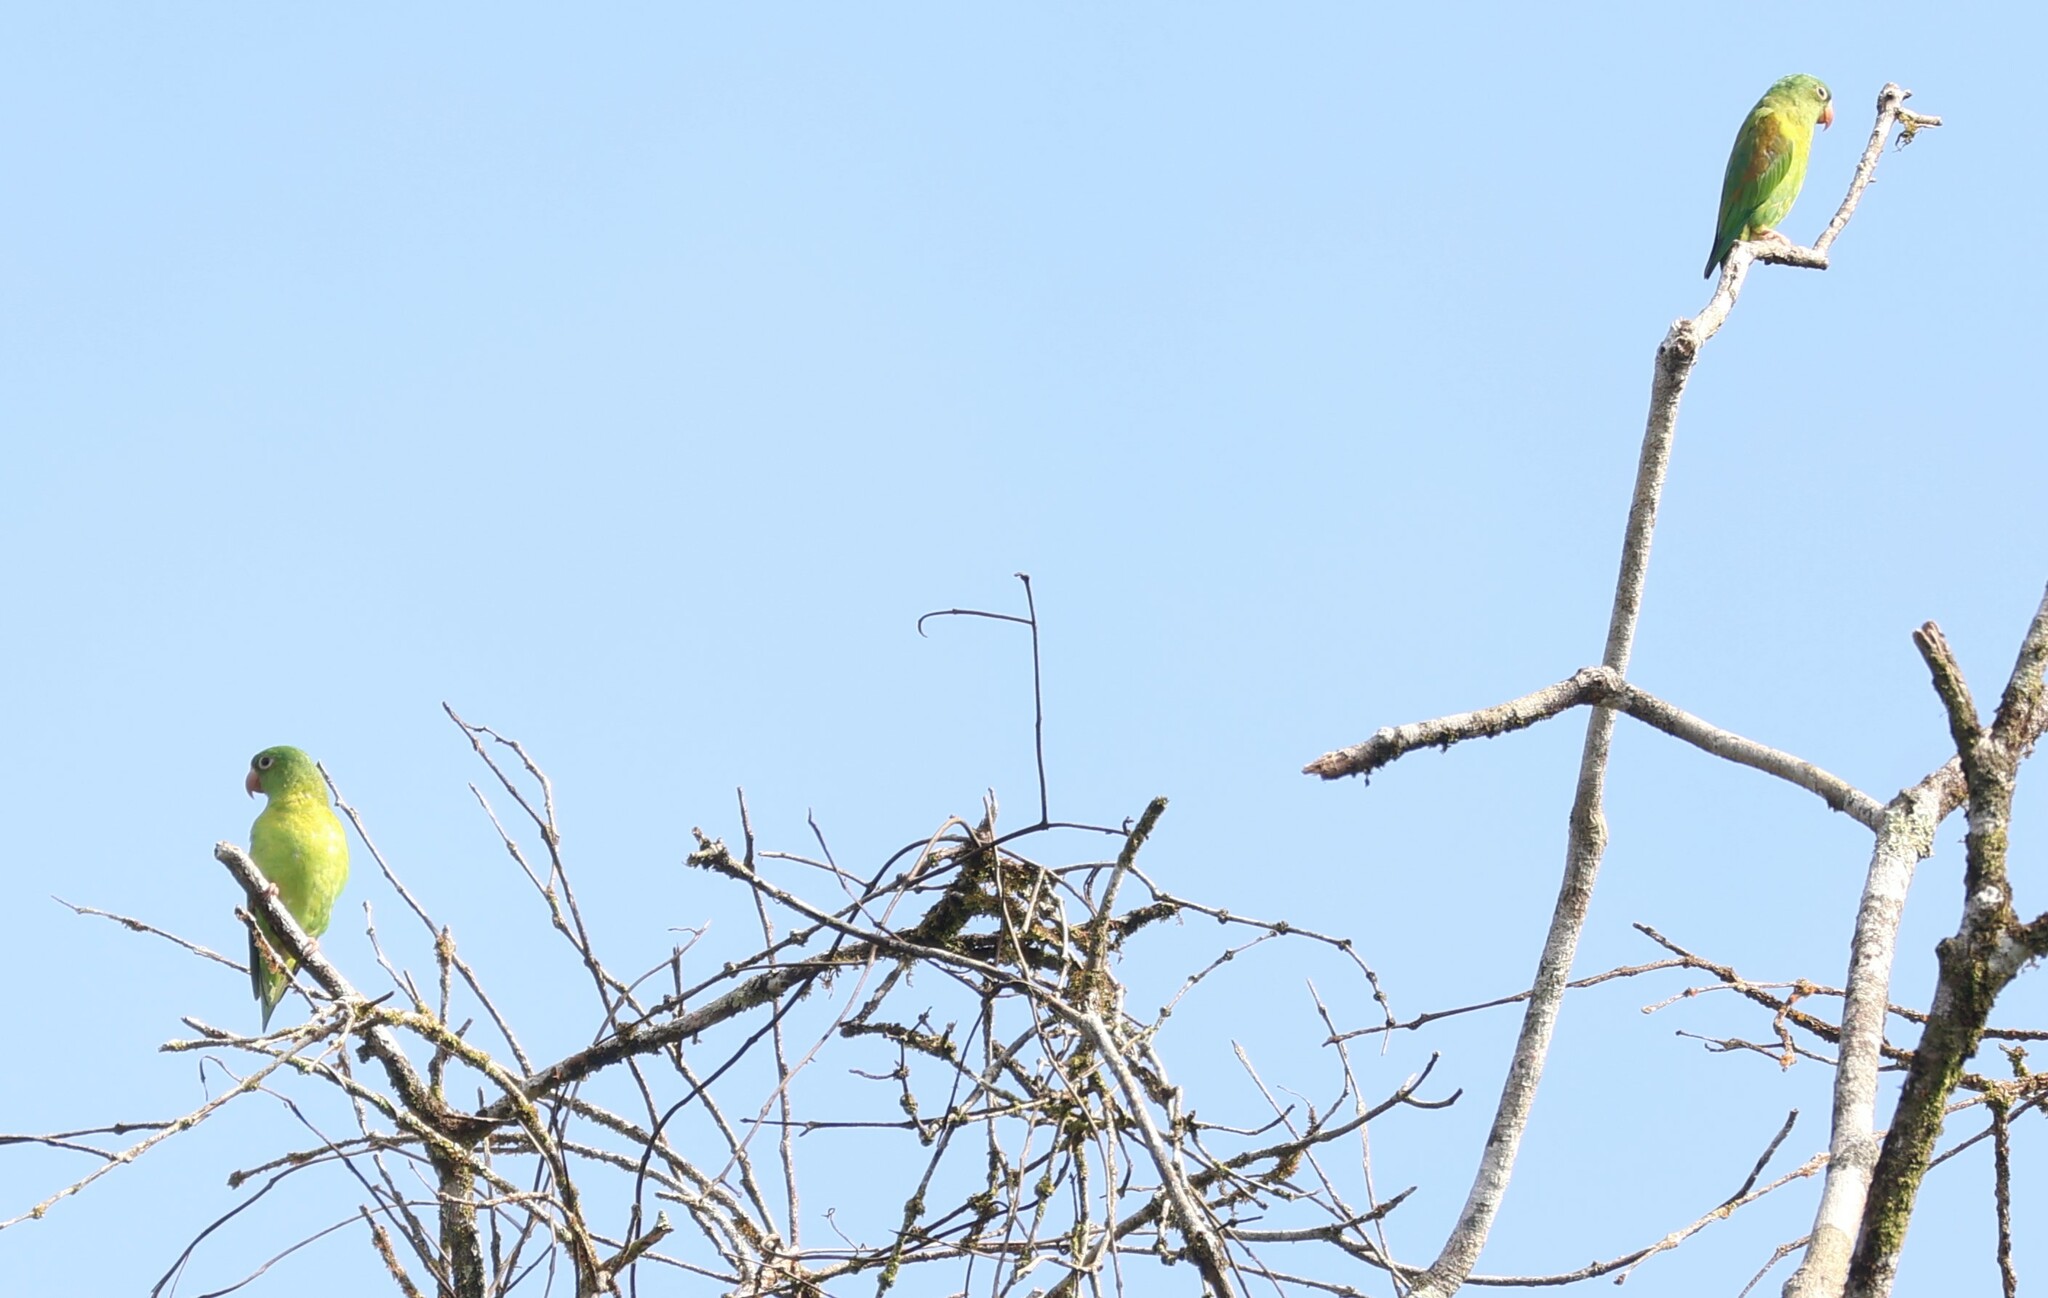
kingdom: Animalia
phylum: Chordata
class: Aves
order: Psittaciformes
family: Psittacidae
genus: Brotogeris
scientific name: Brotogeris jugularis
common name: Orange-chinned parakeet
